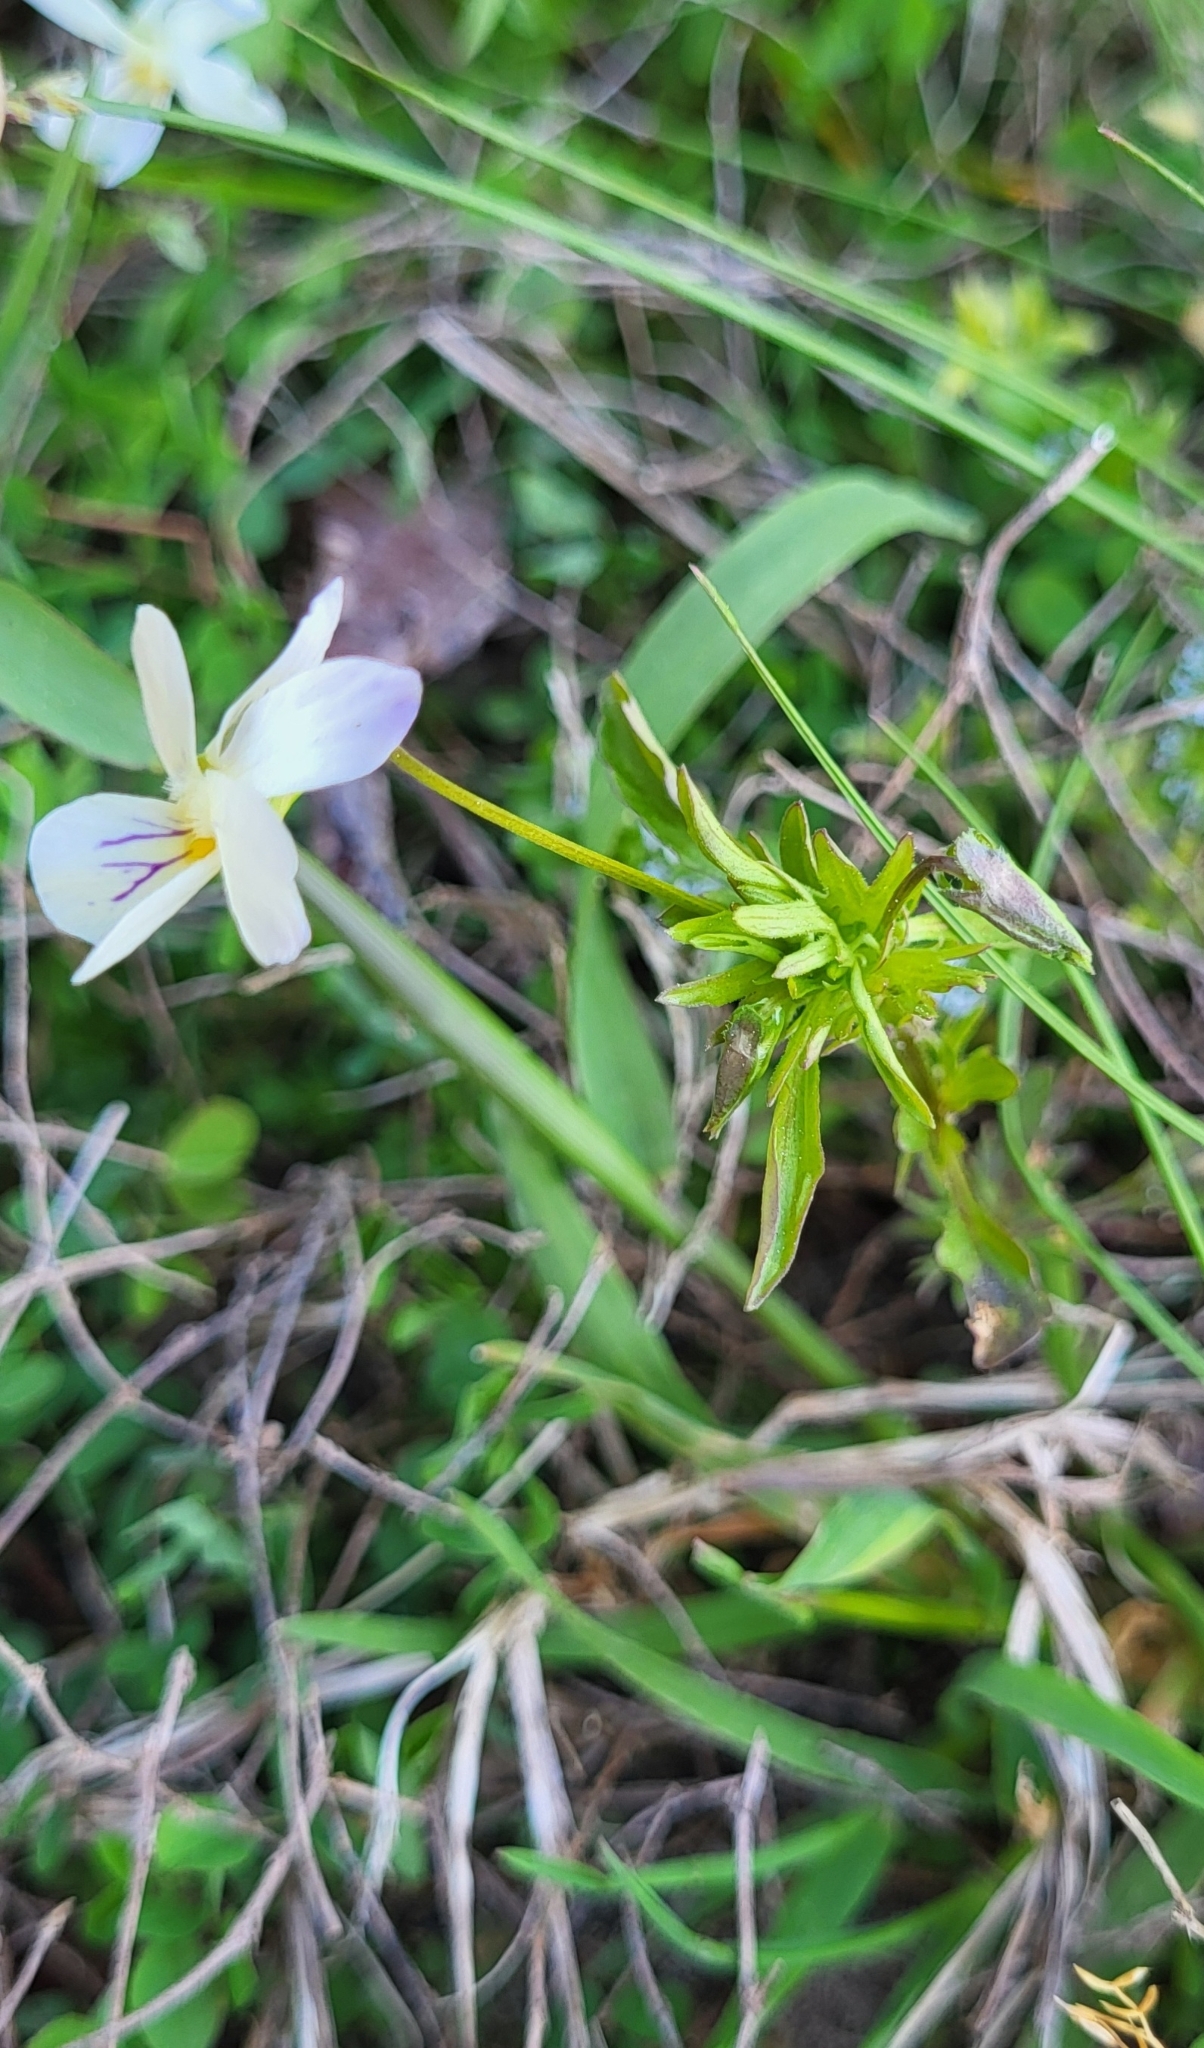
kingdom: Plantae
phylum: Tracheophyta
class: Magnoliopsida
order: Malpighiales
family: Violaceae
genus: Viola
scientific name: Viola rafinesquei
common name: American field pansy
